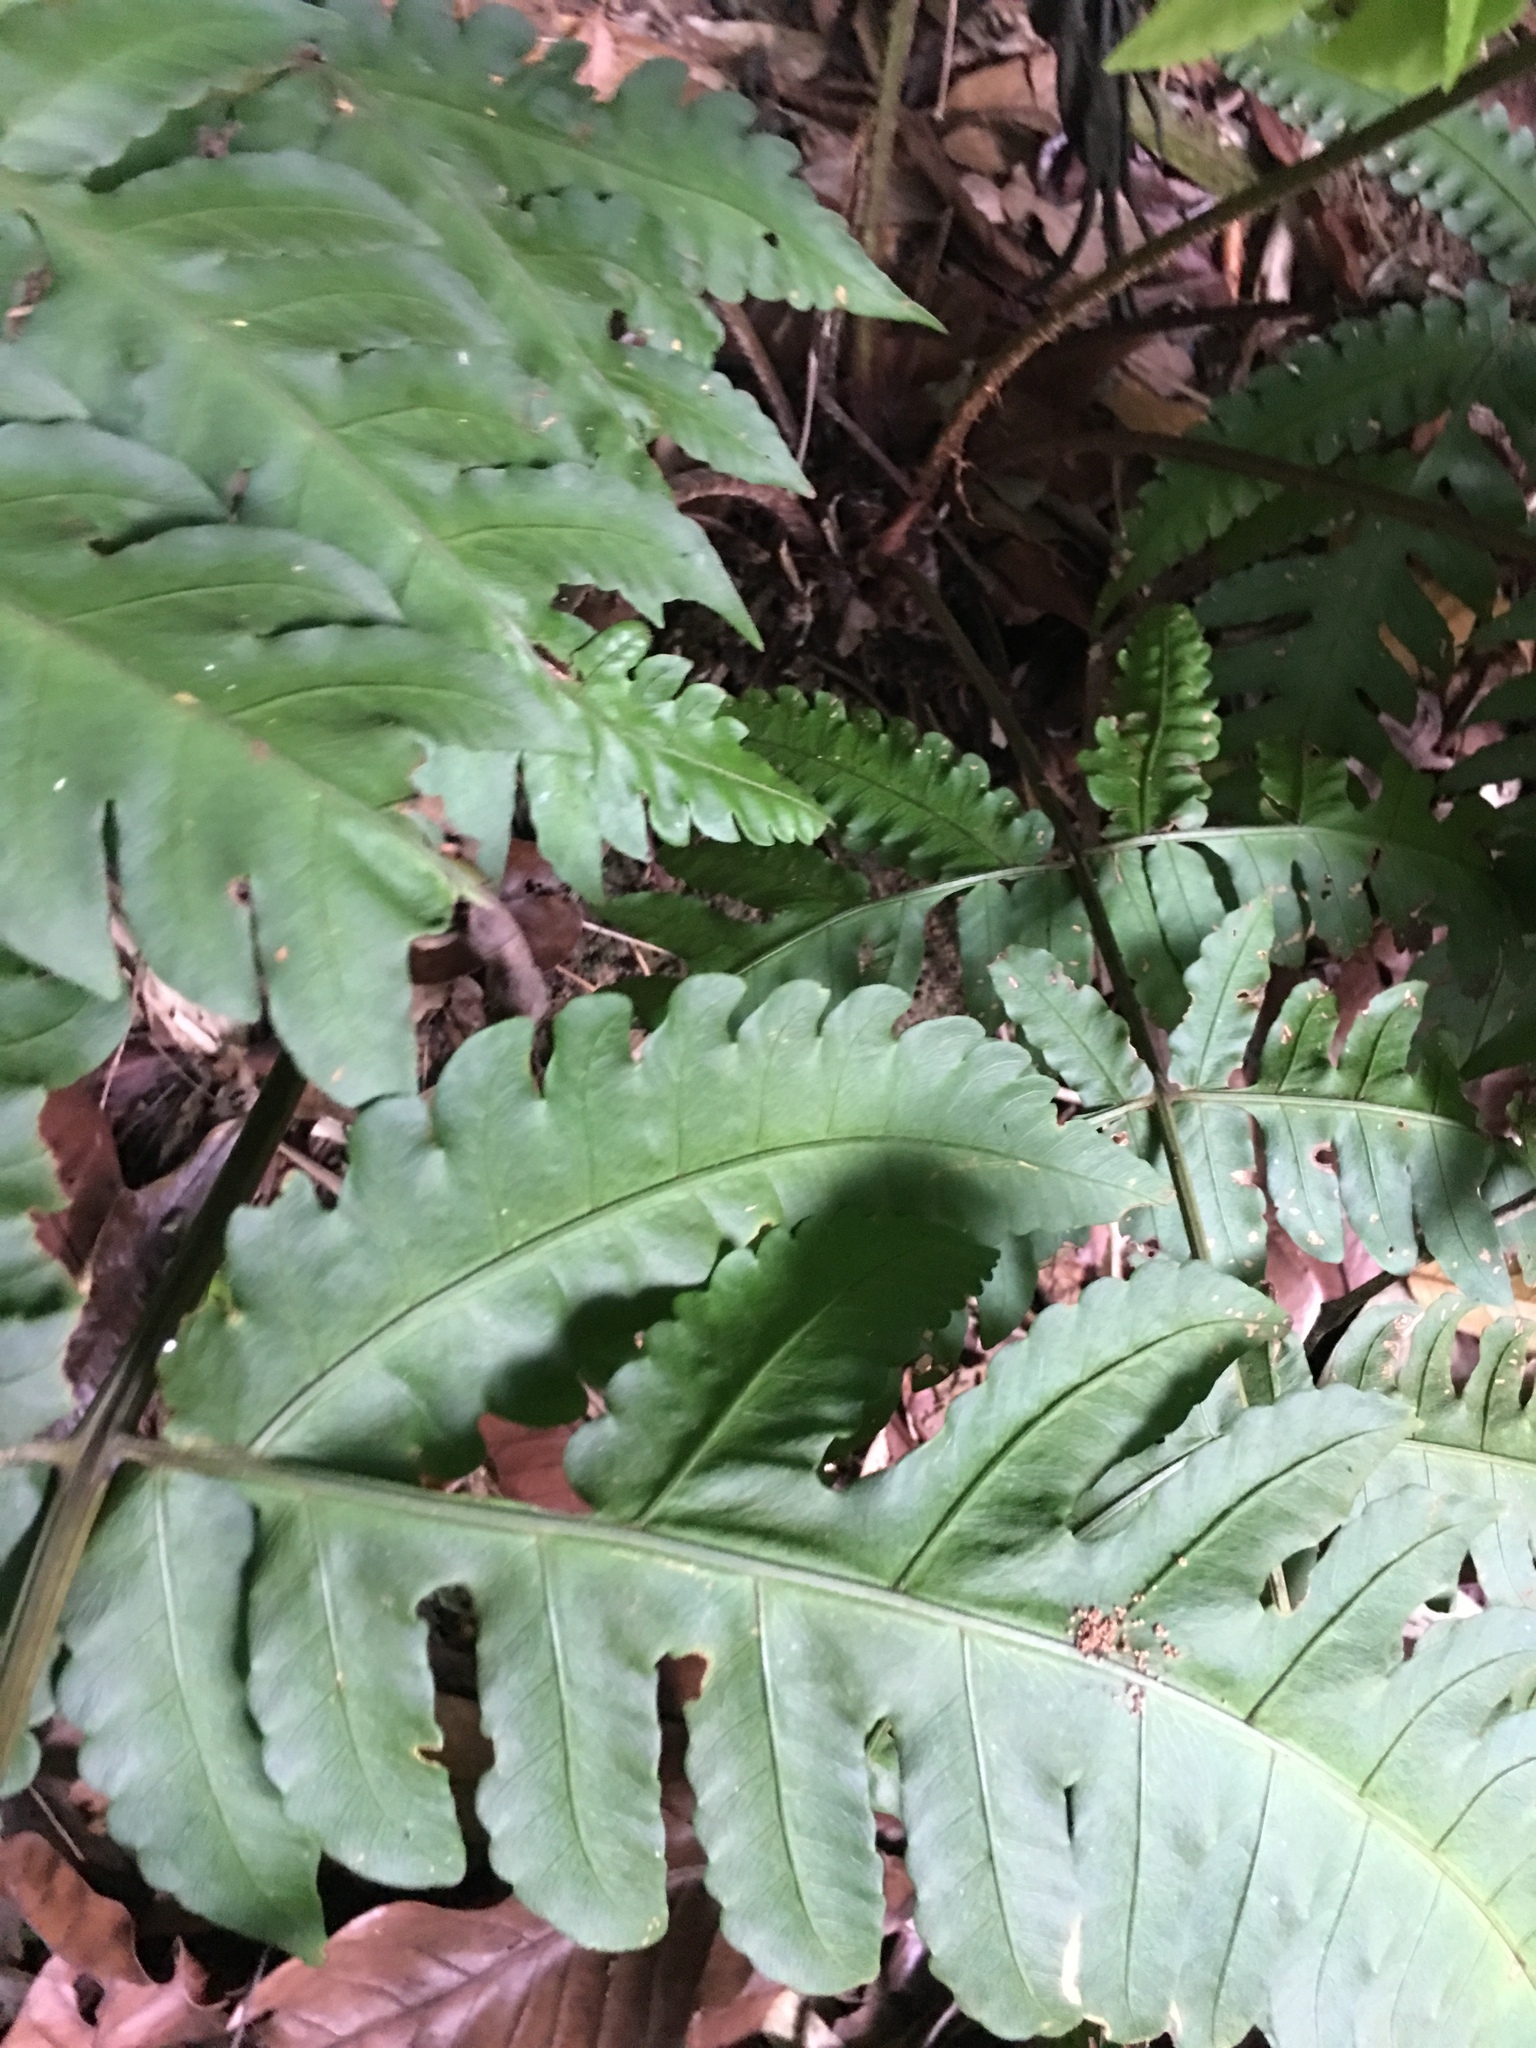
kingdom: Plantae
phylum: Tracheophyta
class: Polypodiopsida
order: Polypodiales
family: Dryopteridaceae
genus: Pleocnemia
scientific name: Pleocnemia irregularis
